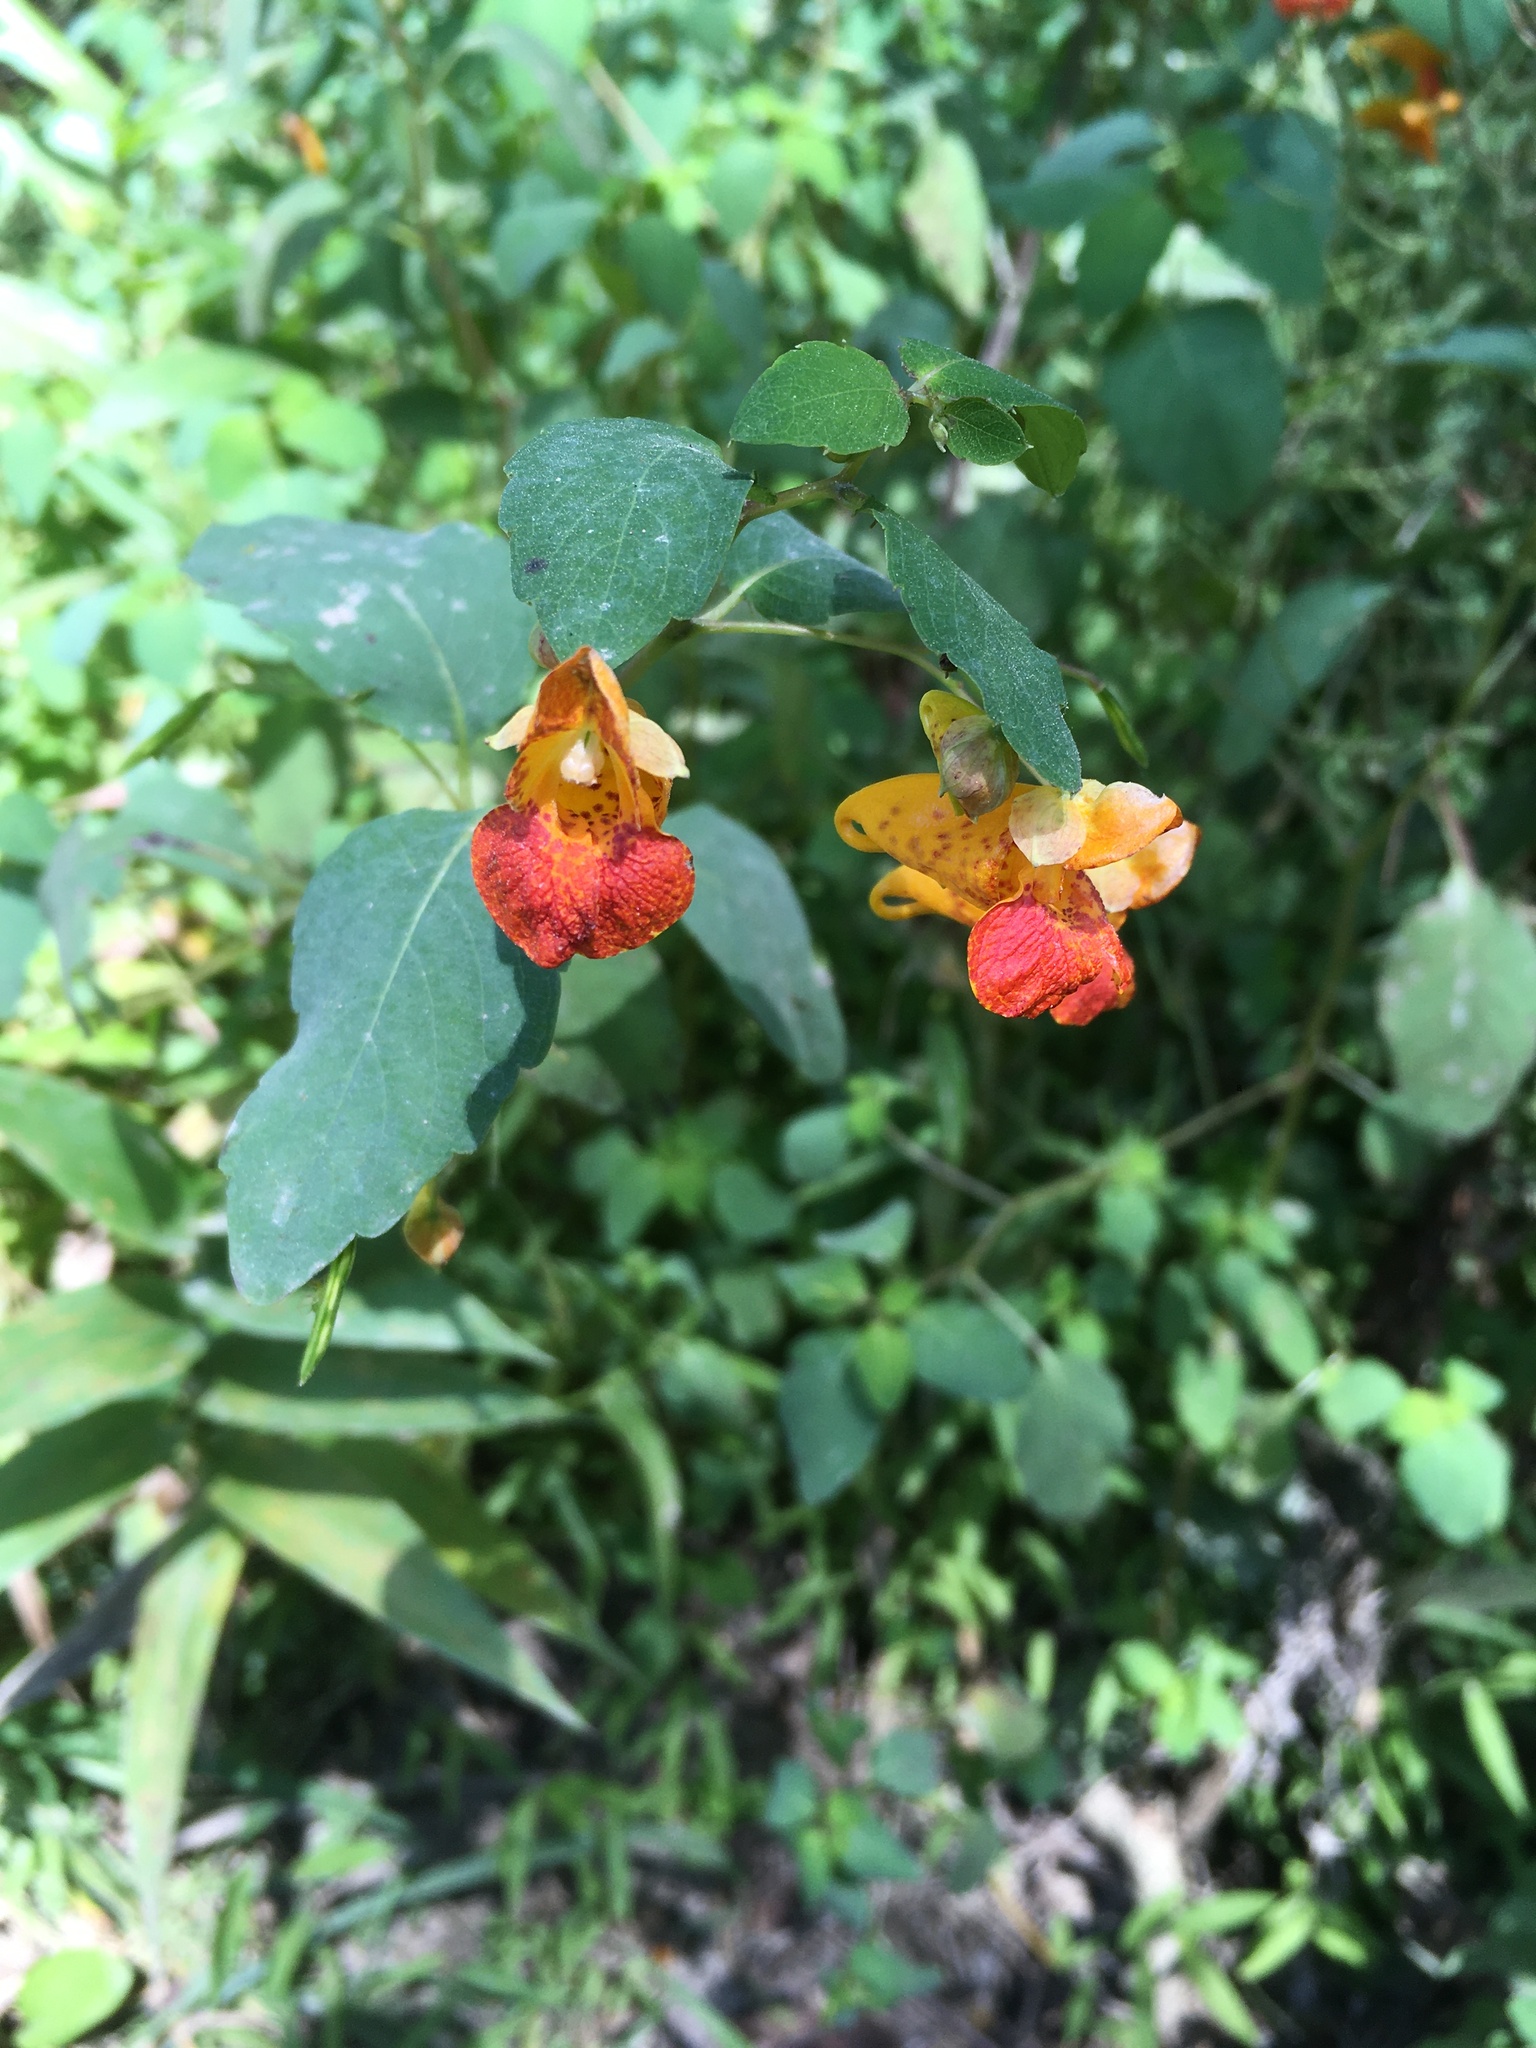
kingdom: Plantae
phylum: Tracheophyta
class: Magnoliopsida
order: Ericales
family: Balsaminaceae
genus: Impatiens
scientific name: Impatiens capensis
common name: Orange balsam
